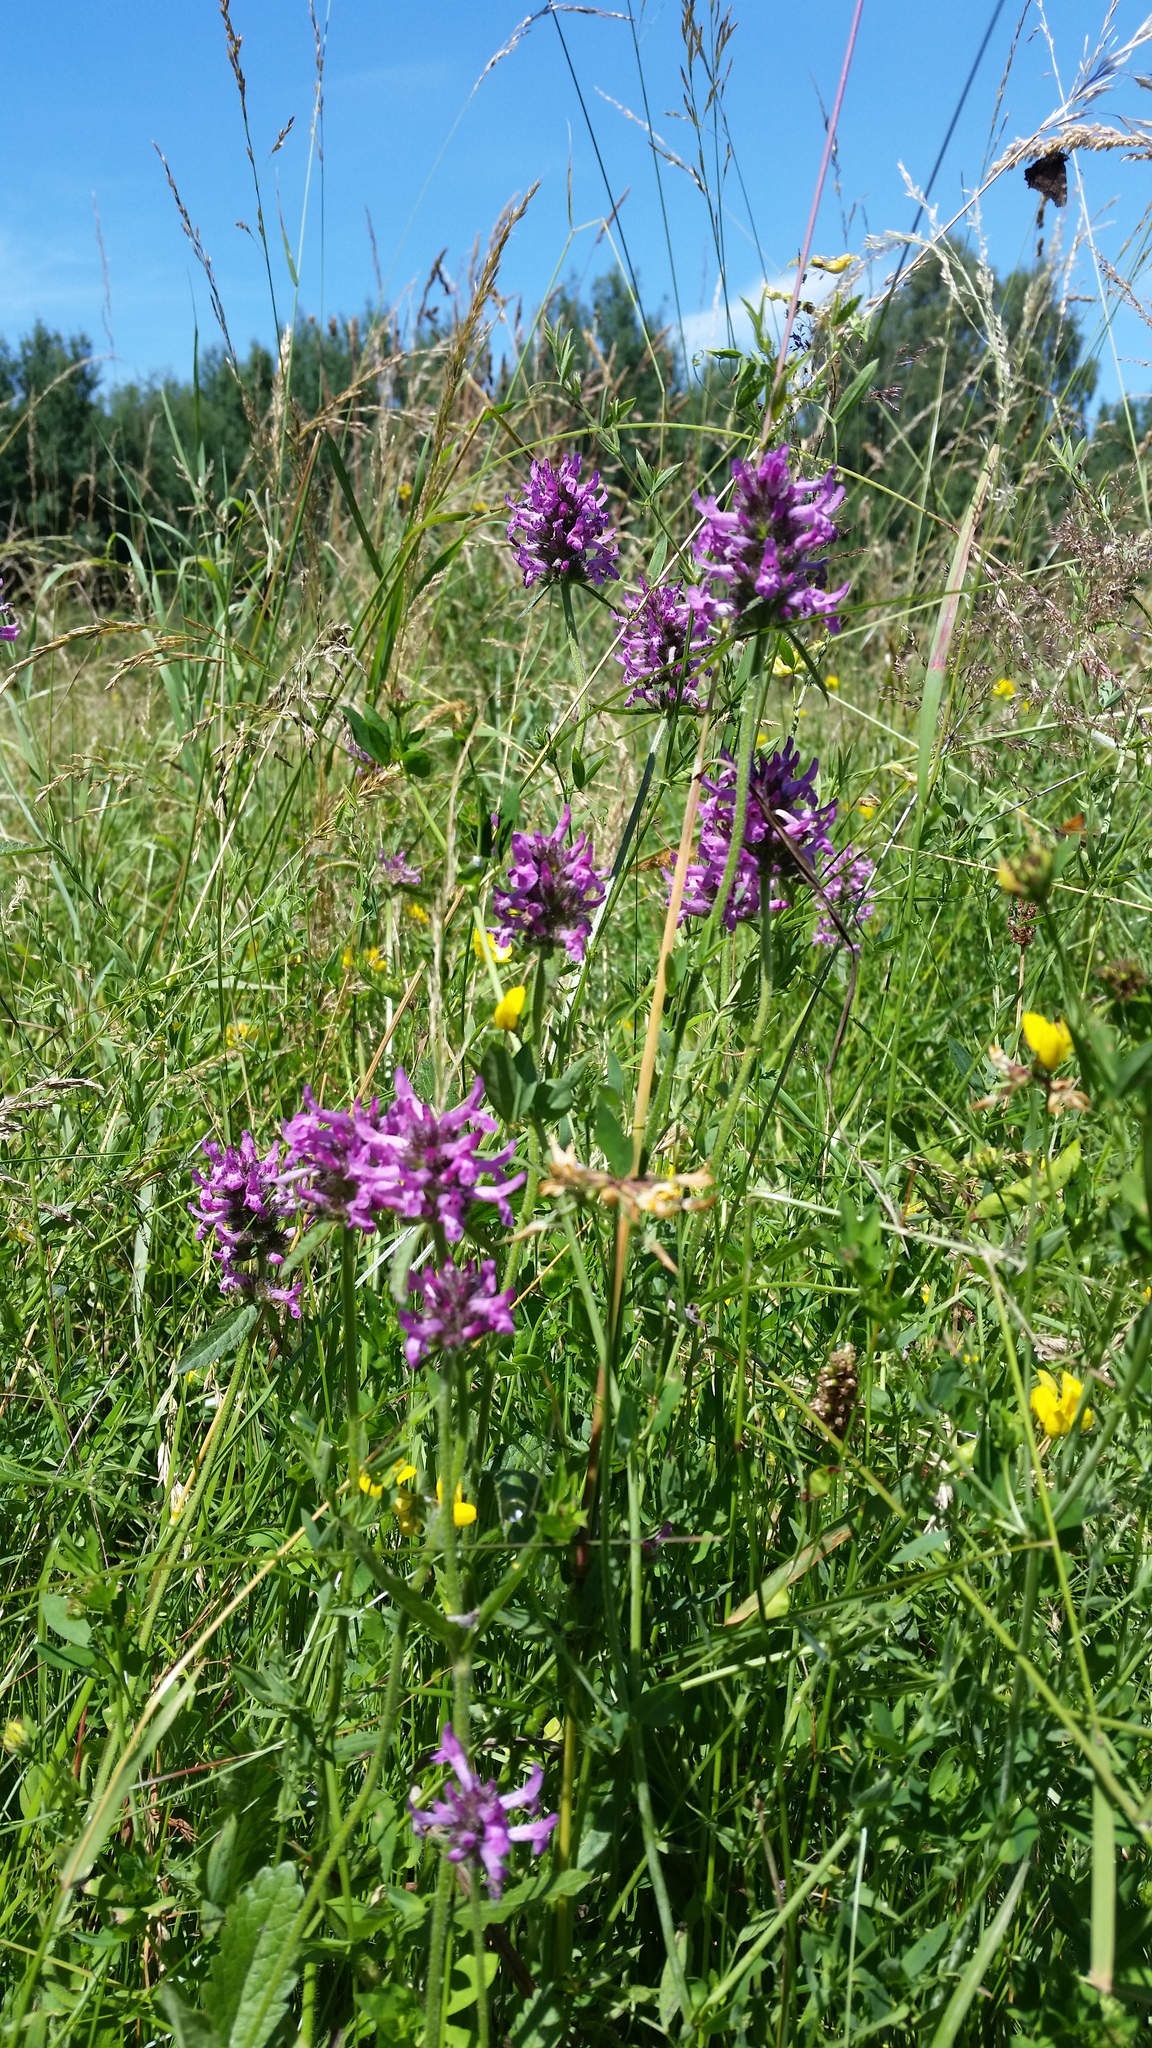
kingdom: Plantae
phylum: Tracheophyta
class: Magnoliopsida
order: Lamiales
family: Lamiaceae
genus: Betonica
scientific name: Betonica officinalis
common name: Bishop's-wort
